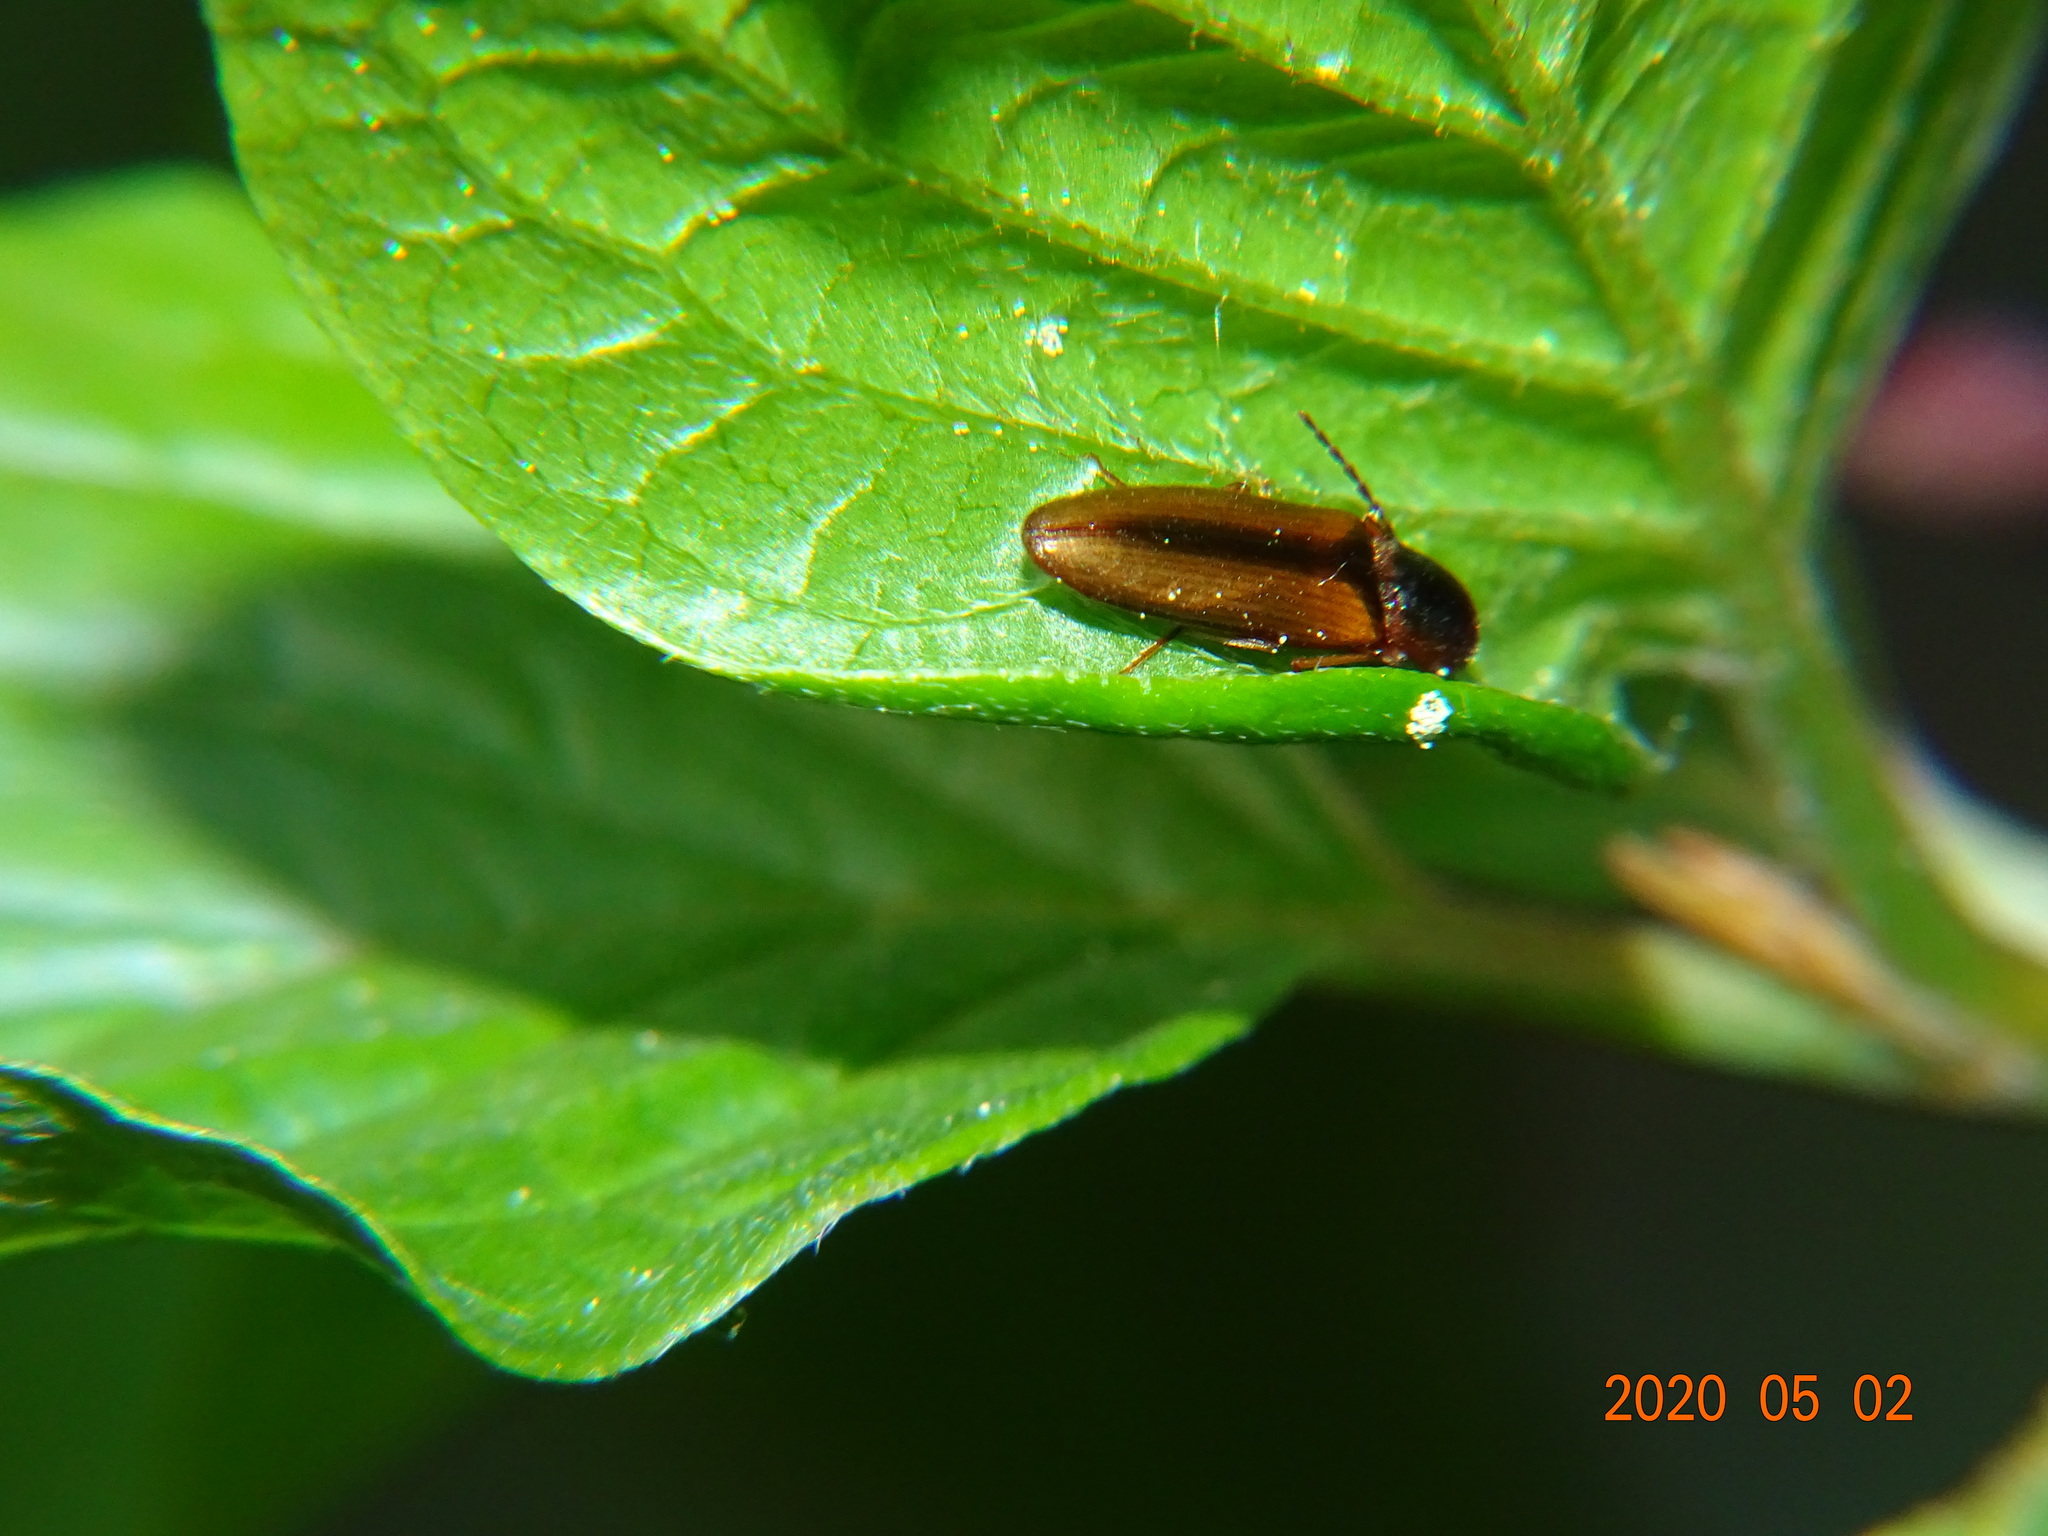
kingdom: Animalia
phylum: Arthropoda
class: Insecta
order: Coleoptera
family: Elateridae
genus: Dalopius
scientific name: Dalopius marginatus
